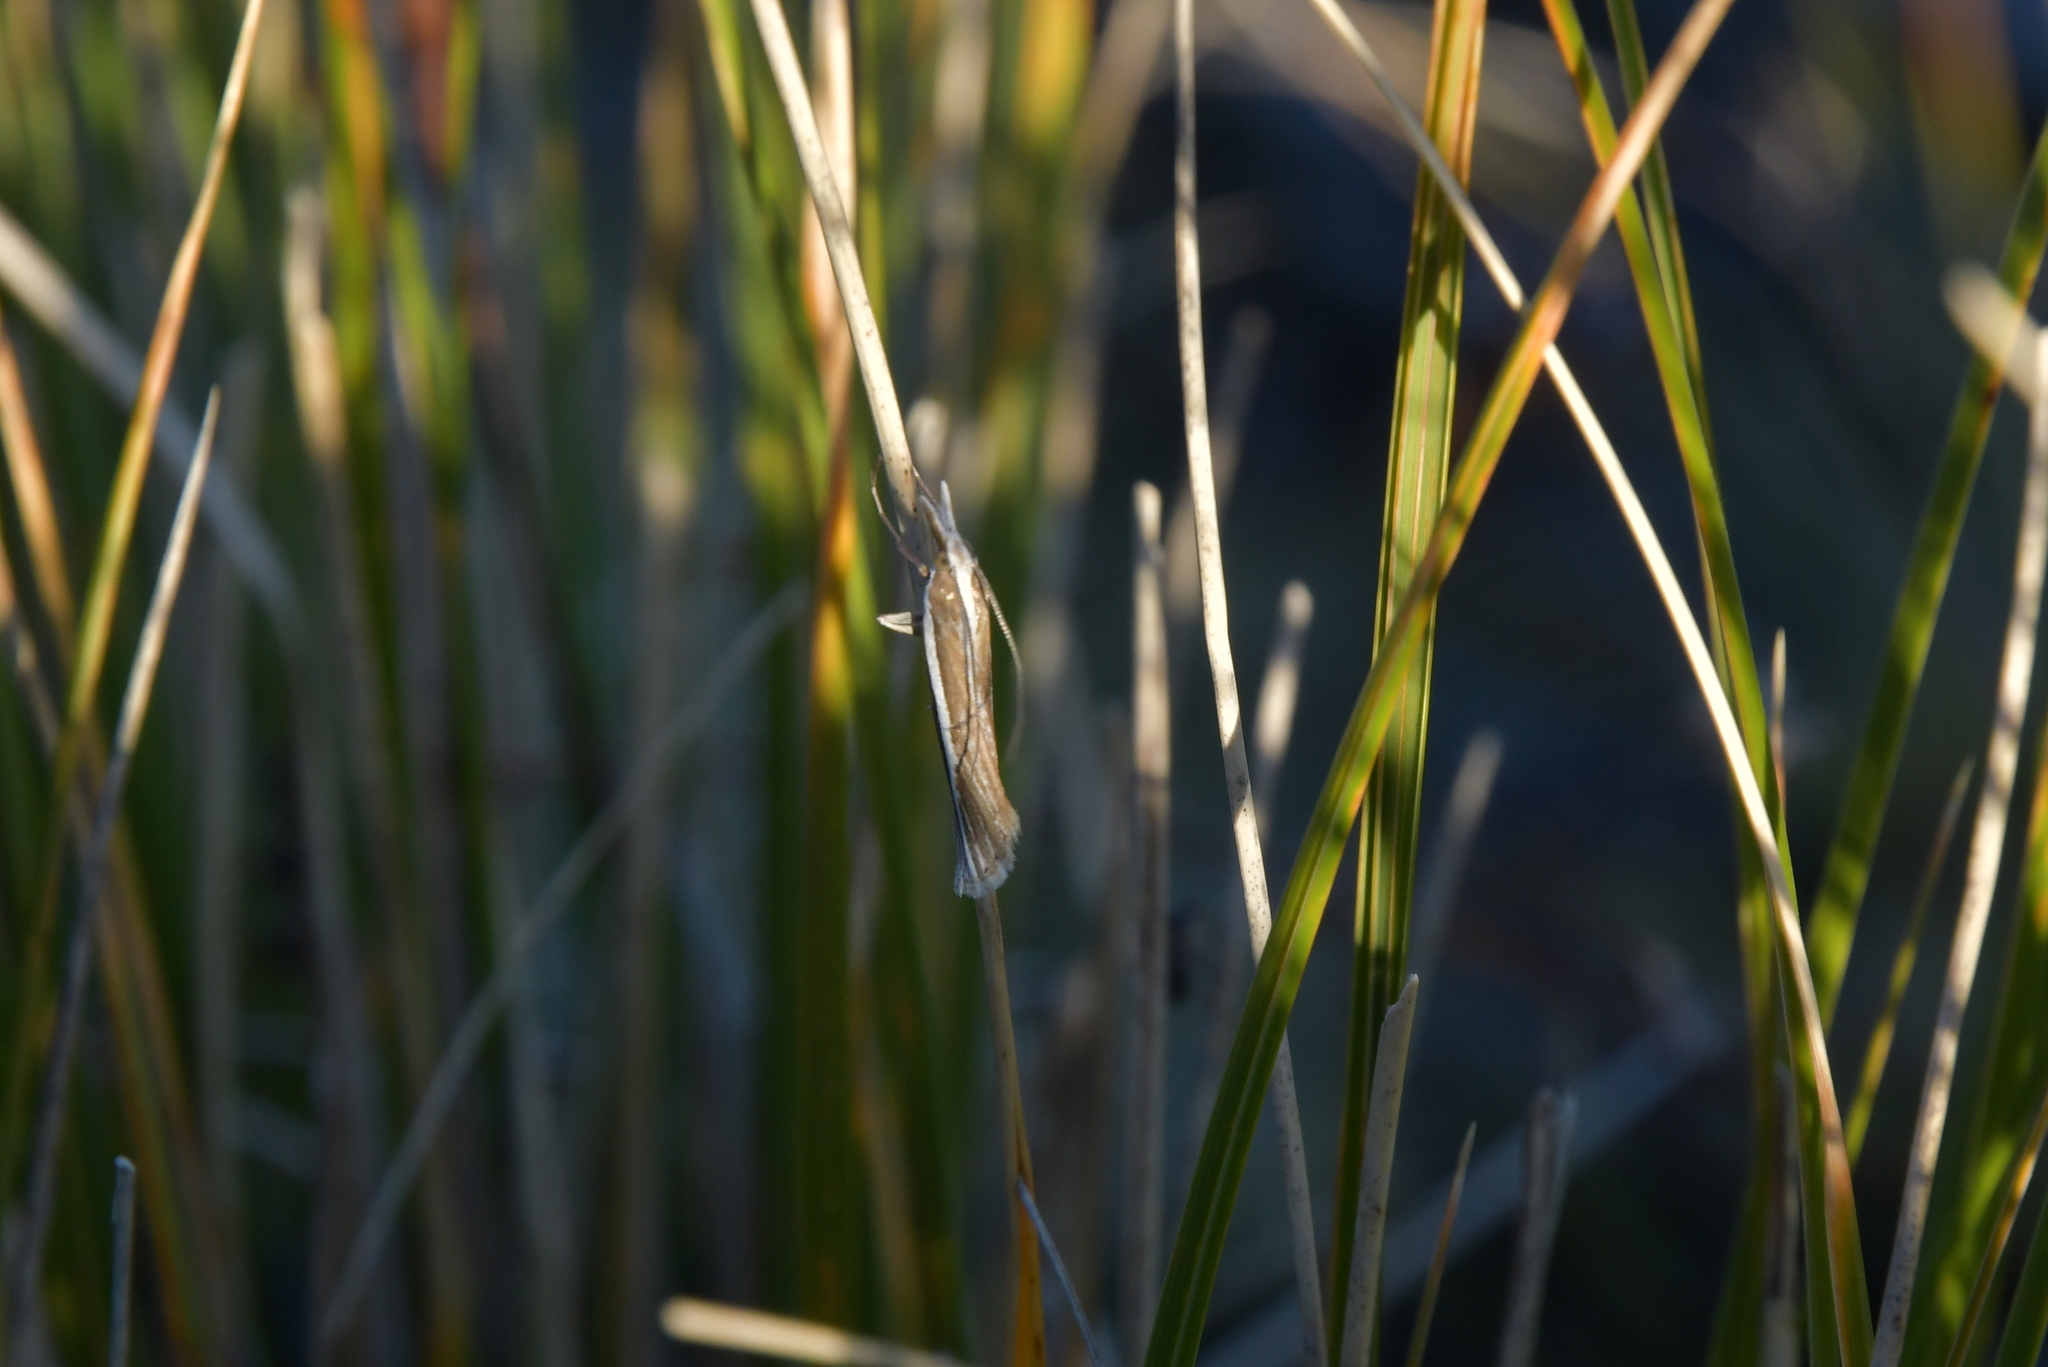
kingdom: Animalia
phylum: Arthropoda
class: Insecta
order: Lepidoptera
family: Crambidae
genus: Orocrambus
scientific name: Orocrambus enchophorus
